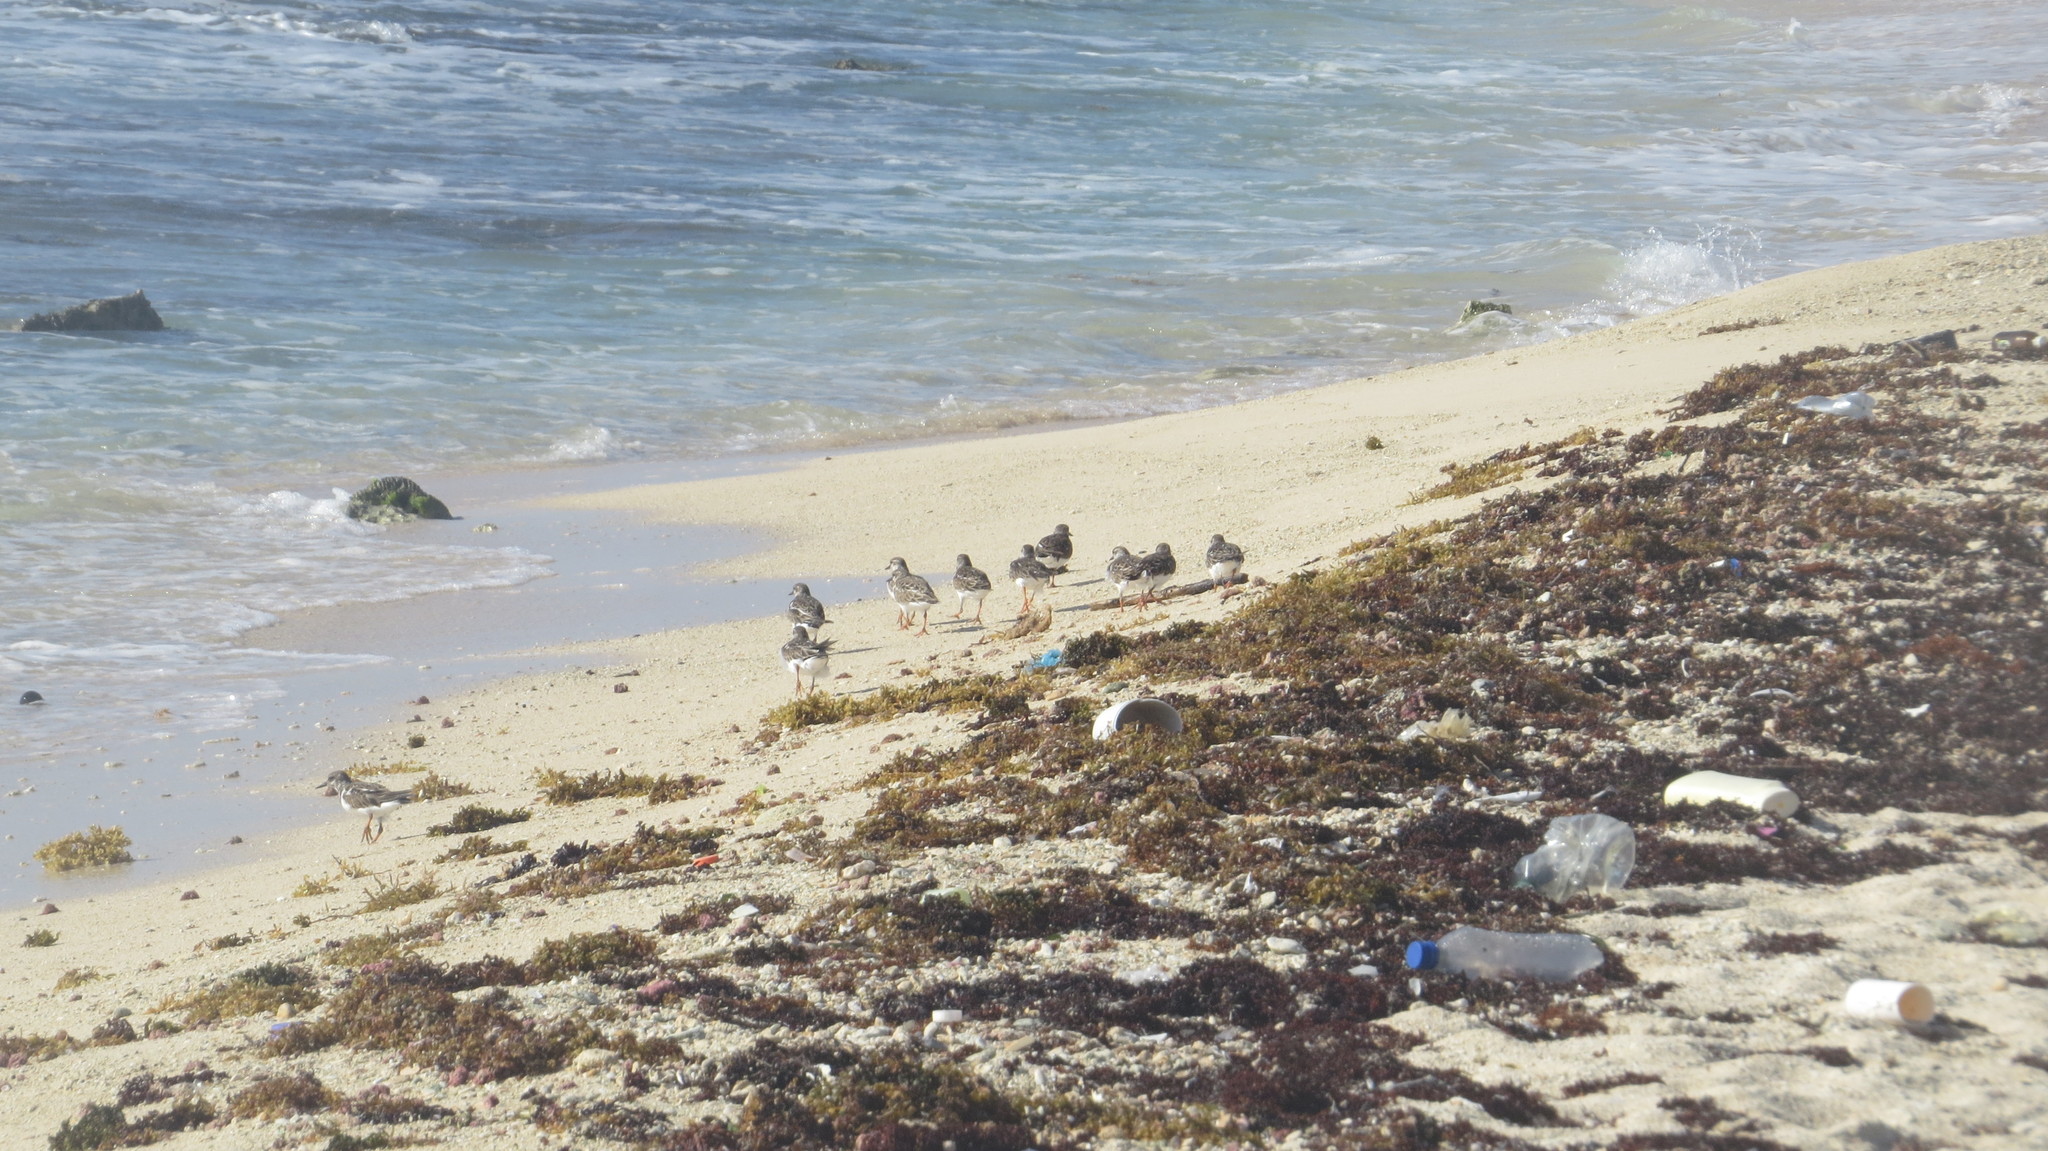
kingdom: Animalia
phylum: Chordata
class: Aves
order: Charadriiformes
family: Scolopacidae
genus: Arenaria
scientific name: Arenaria interpres
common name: Ruddy turnstone
